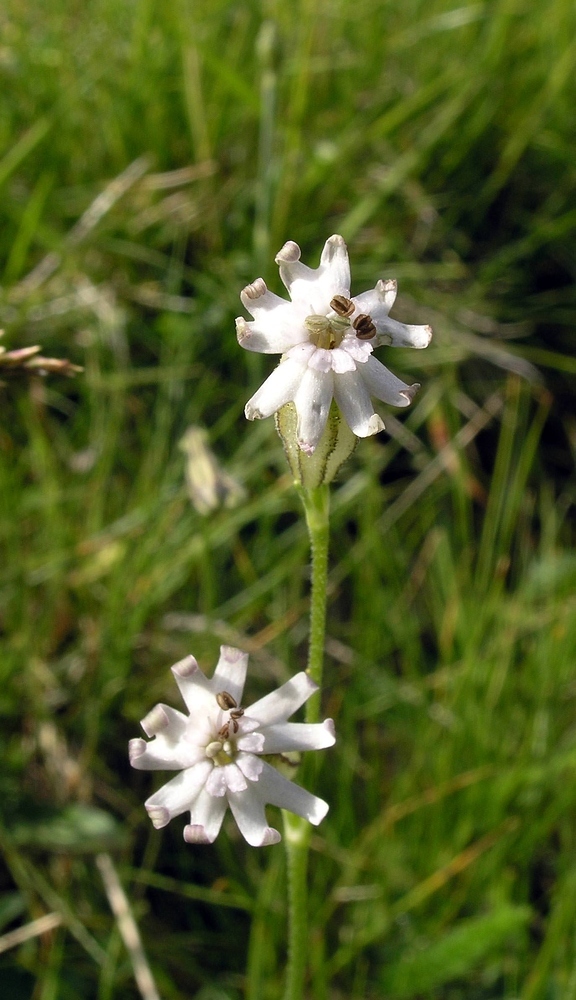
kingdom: Plantae
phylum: Tracheophyta
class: Magnoliopsida
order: Caryophyllales
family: Caryophyllaceae
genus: Silene
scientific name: Silene ciliata
